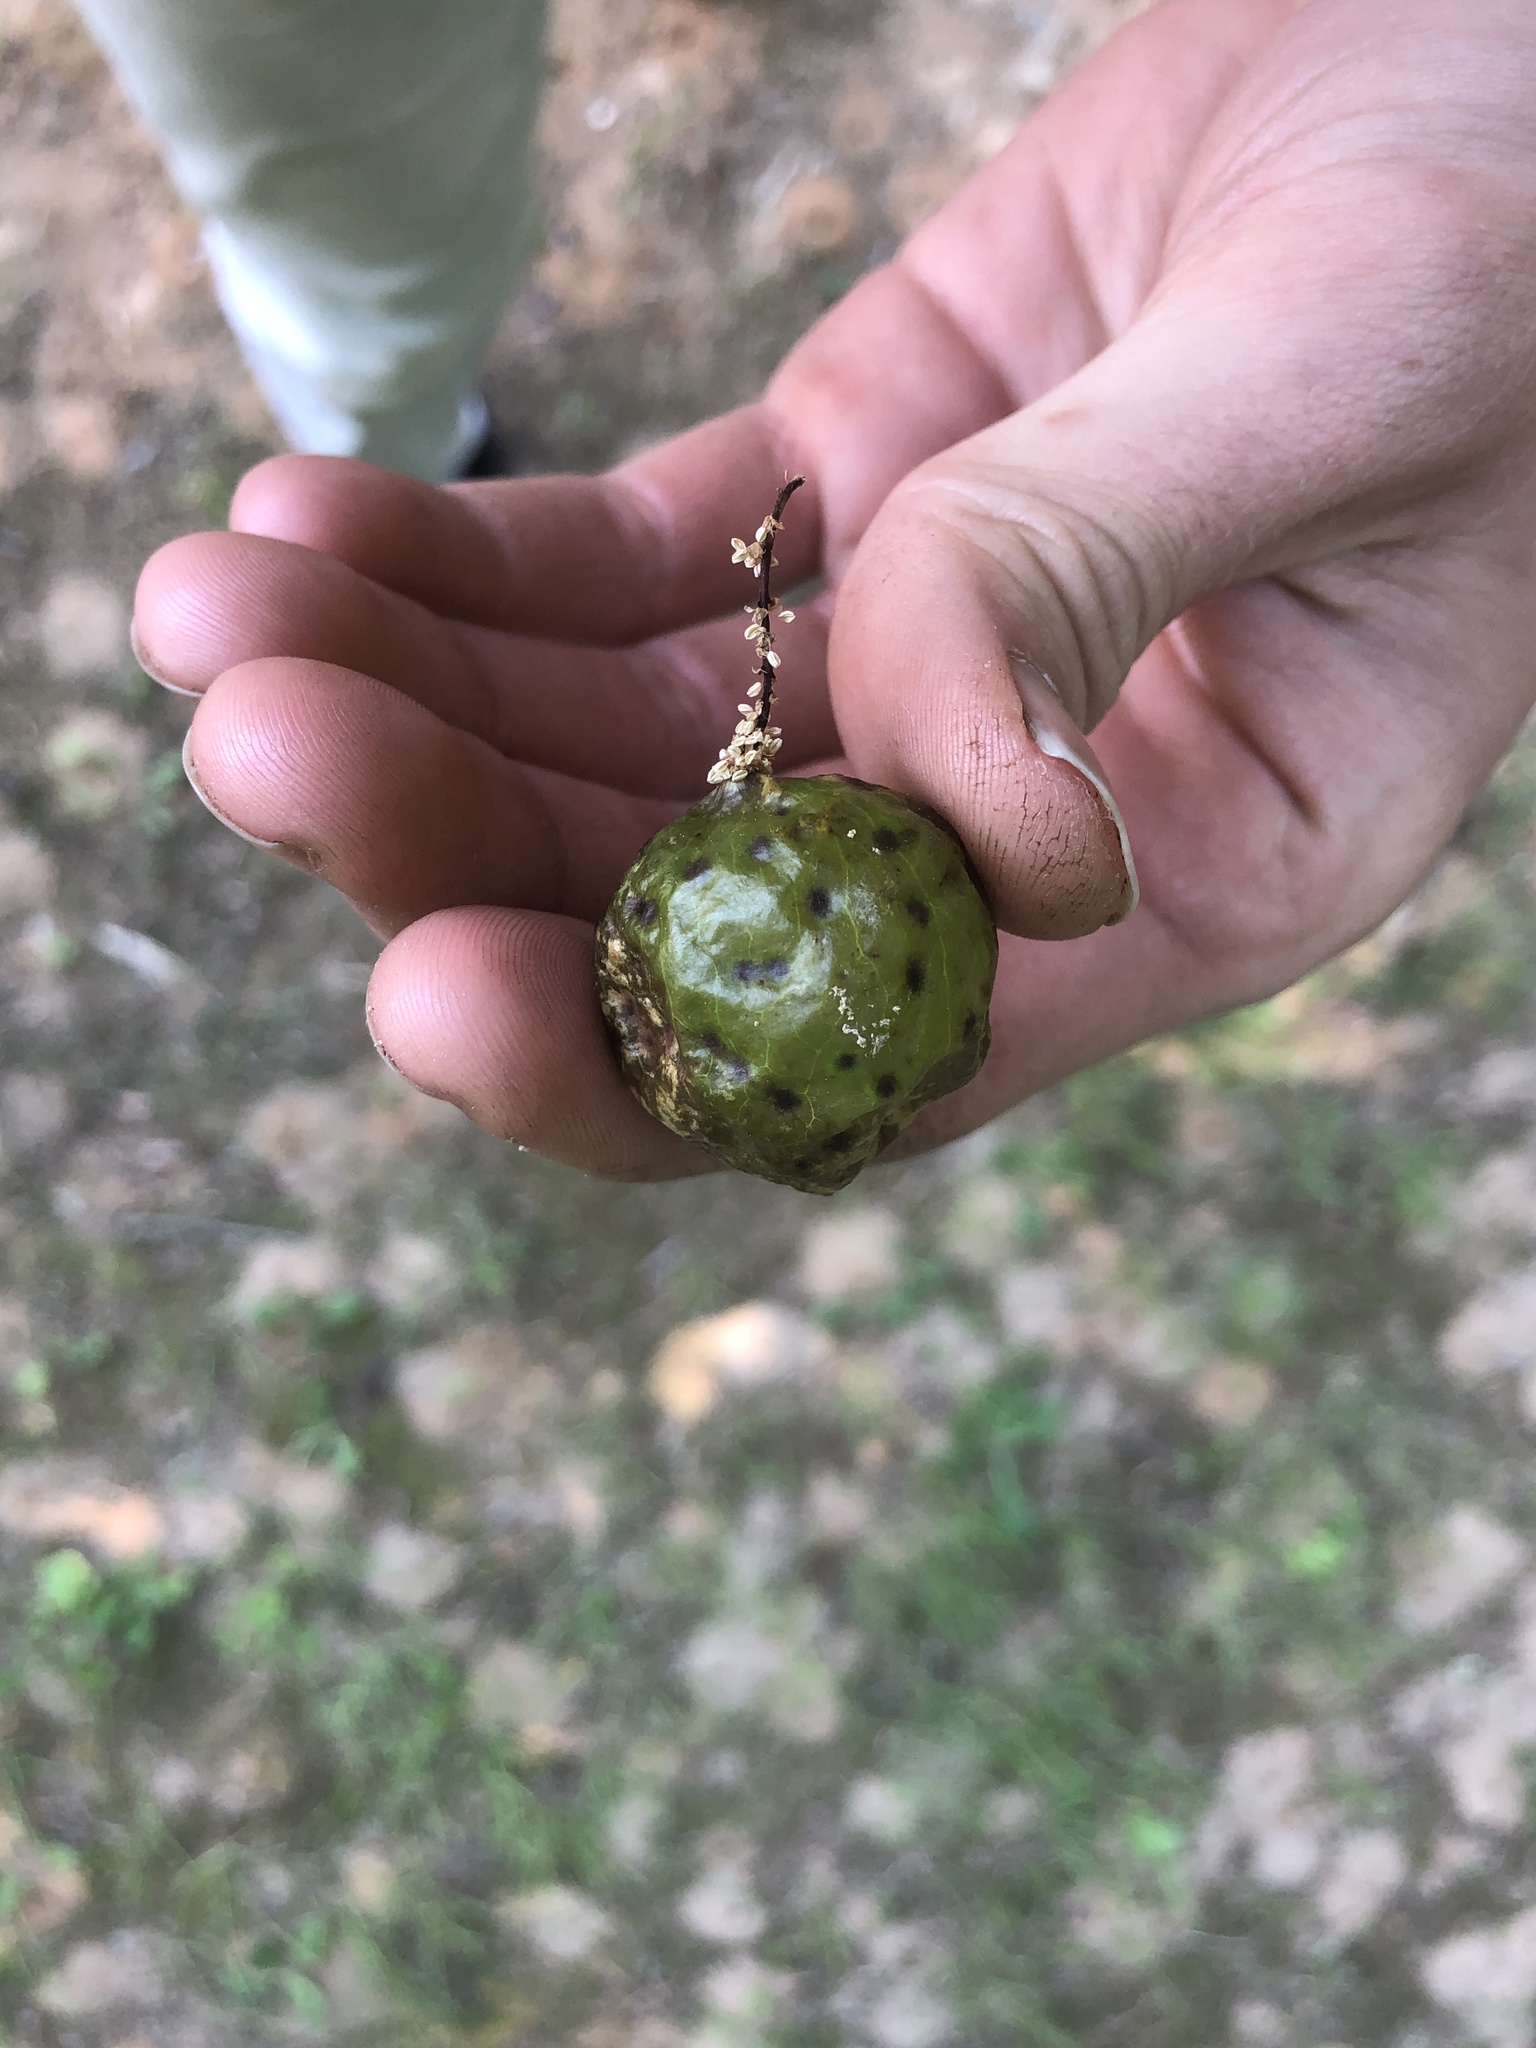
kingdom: Animalia
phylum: Arthropoda
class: Insecta
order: Hymenoptera
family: Cynipidae
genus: Amphibolips
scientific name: Amphibolips
